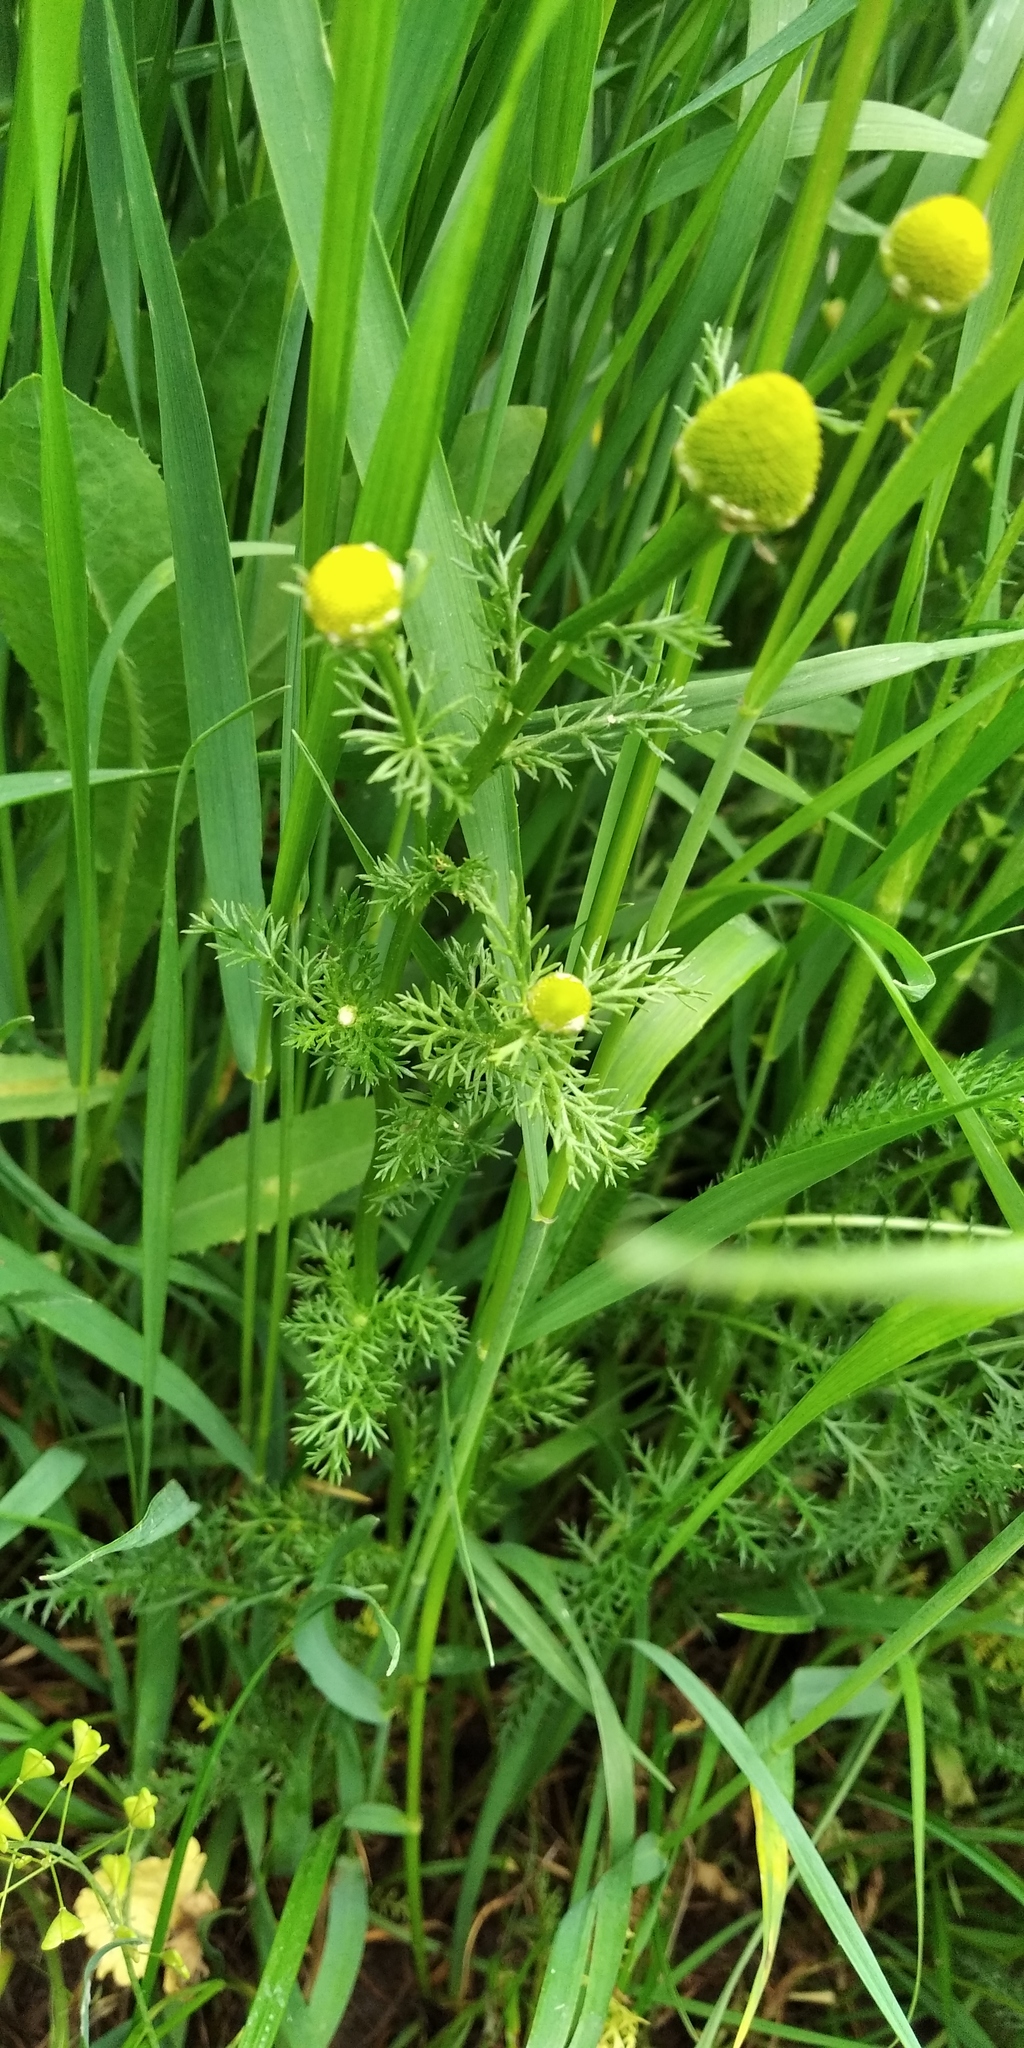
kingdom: Plantae
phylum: Tracheophyta
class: Magnoliopsida
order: Asterales
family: Asteraceae
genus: Matricaria
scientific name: Matricaria discoidea
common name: Disc mayweed
